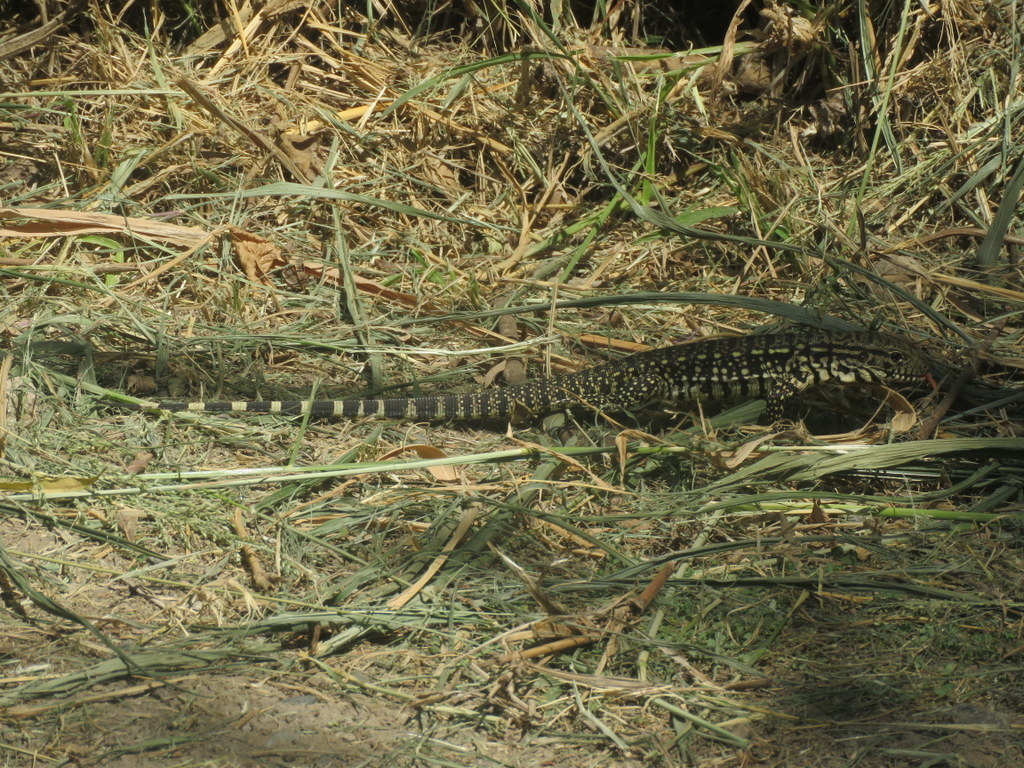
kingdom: Animalia
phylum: Chordata
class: Squamata
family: Teiidae
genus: Salvator
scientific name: Salvator merianae
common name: Argentine black and white tegu
